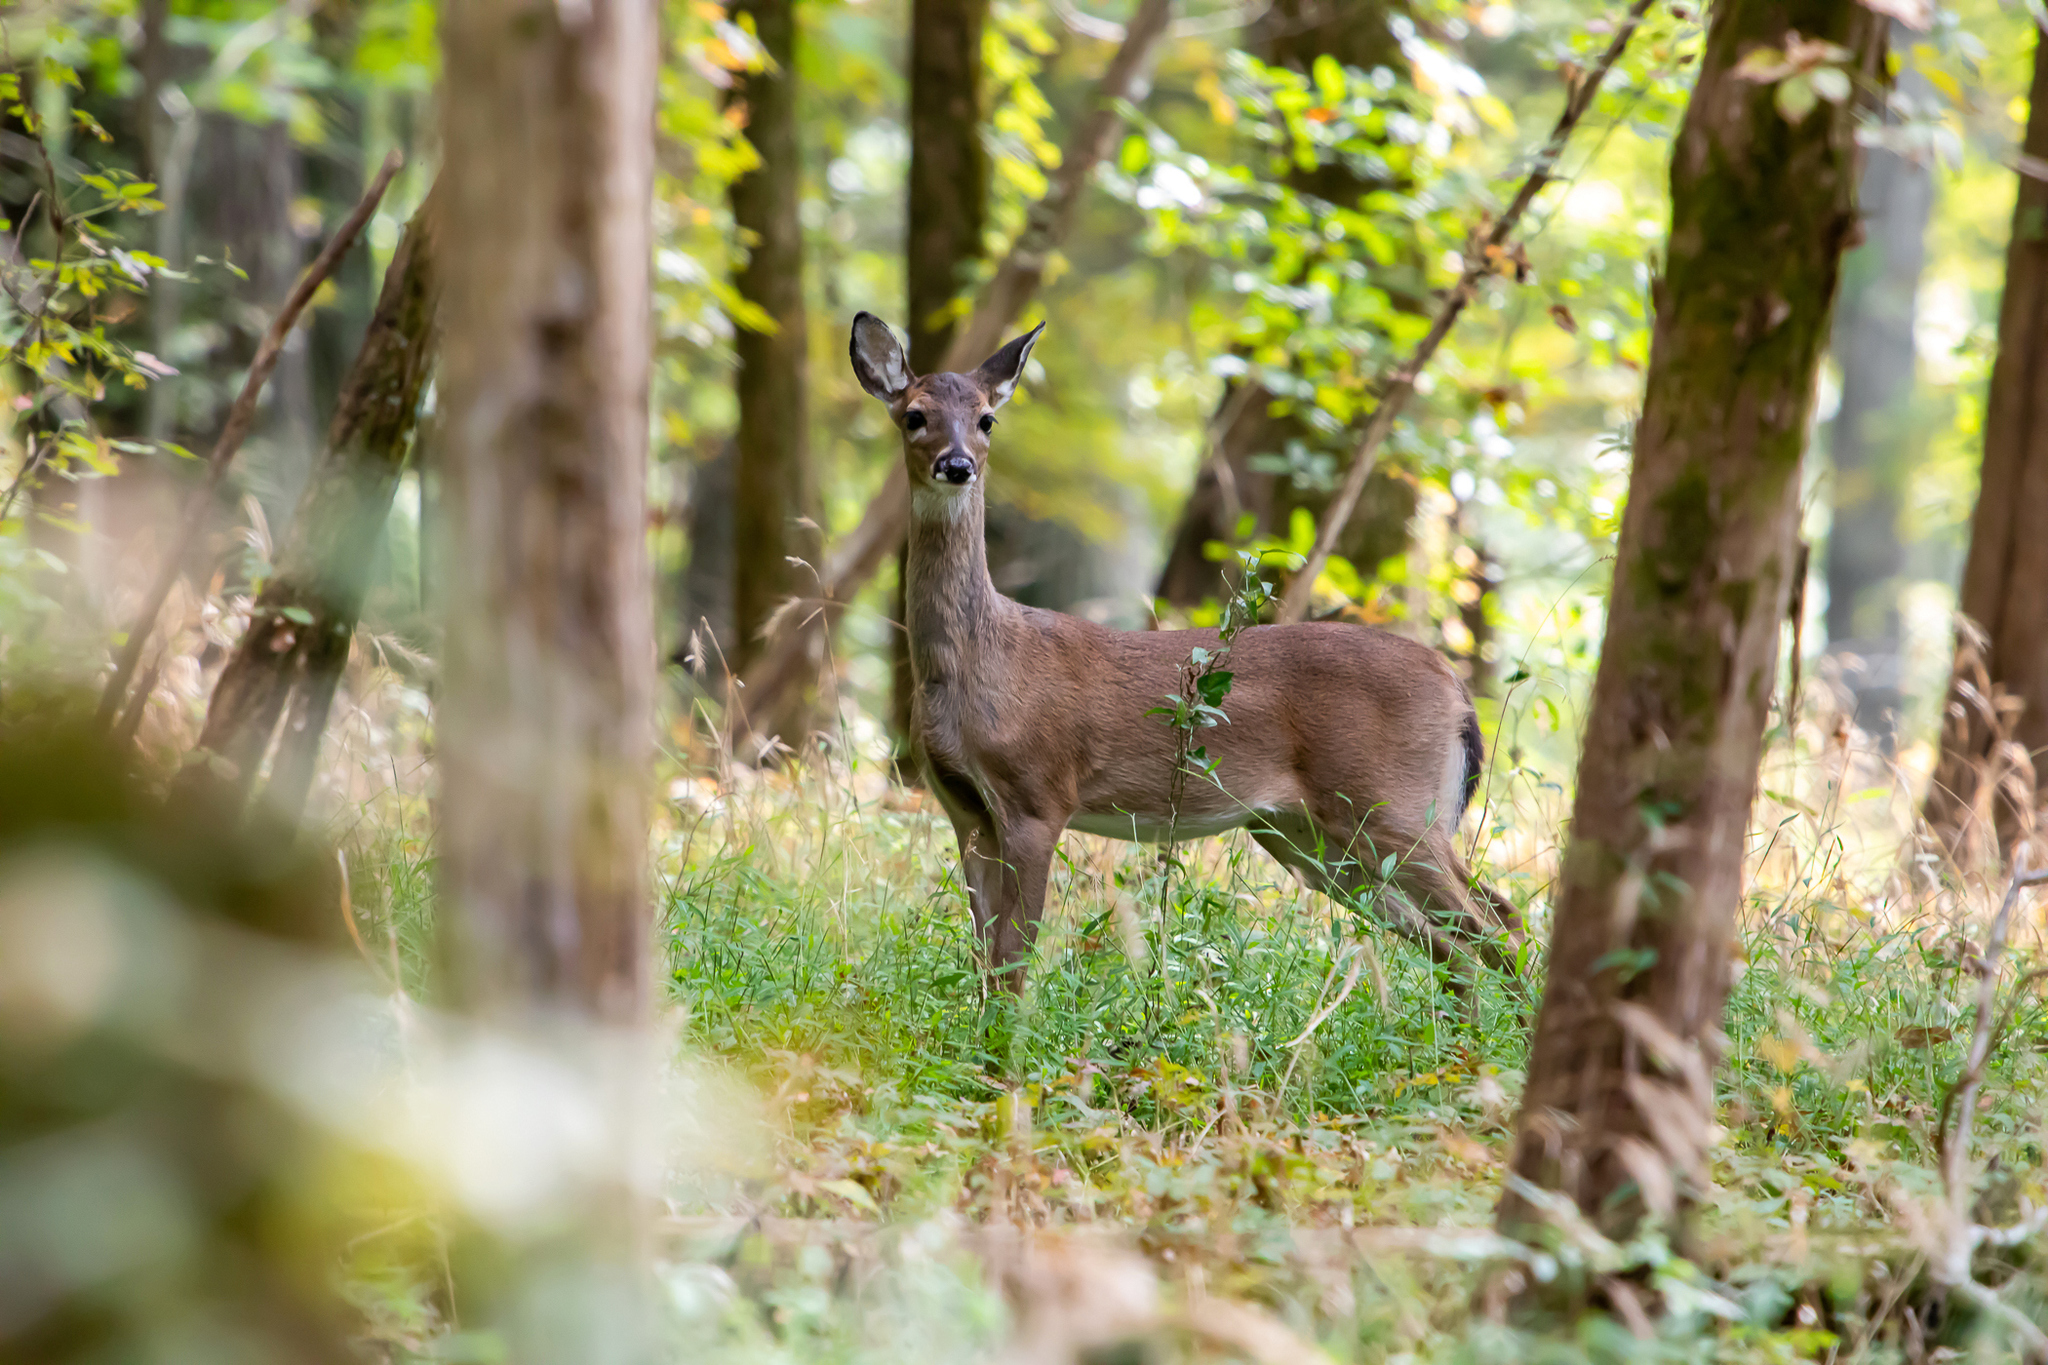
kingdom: Animalia
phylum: Chordata
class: Mammalia
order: Artiodactyla
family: Cervidae
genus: Odocoileus
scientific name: Odocoileus virginianus
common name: White-tailed deer
